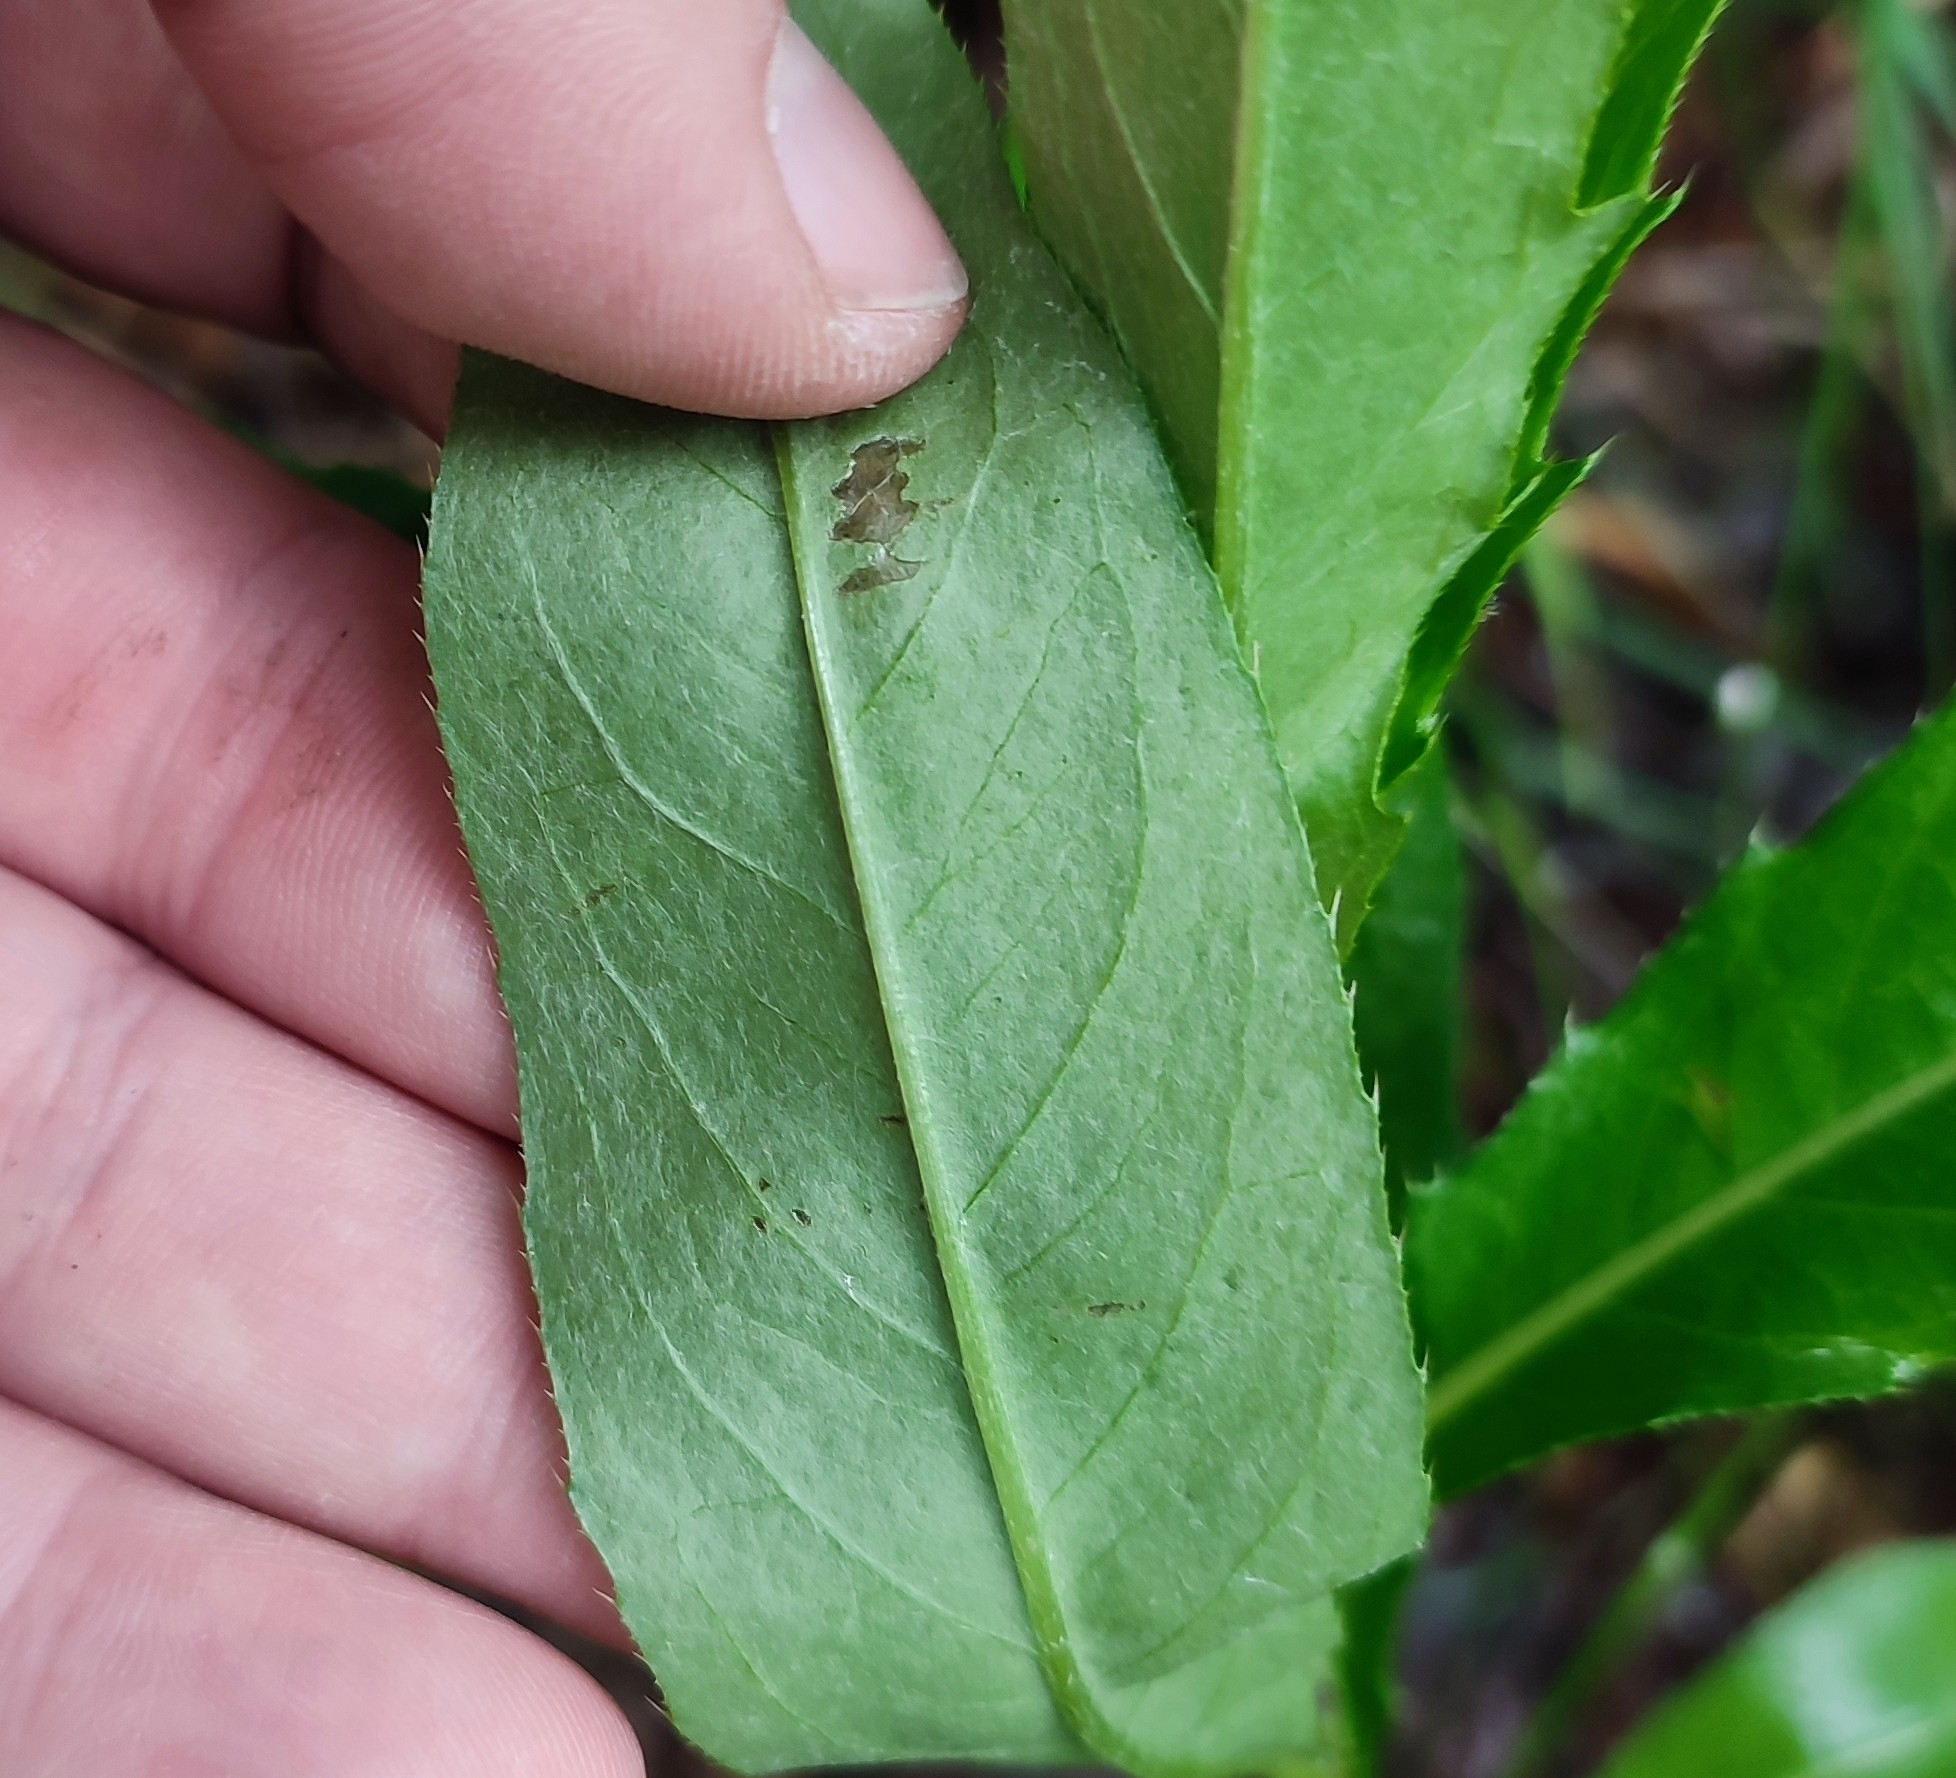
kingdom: Plantae
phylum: Tracheophyta
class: Magnoliopsida
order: Asterales
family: Asteraceae
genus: Cirsium
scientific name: Cirsium arvense
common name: Creeping thistle
